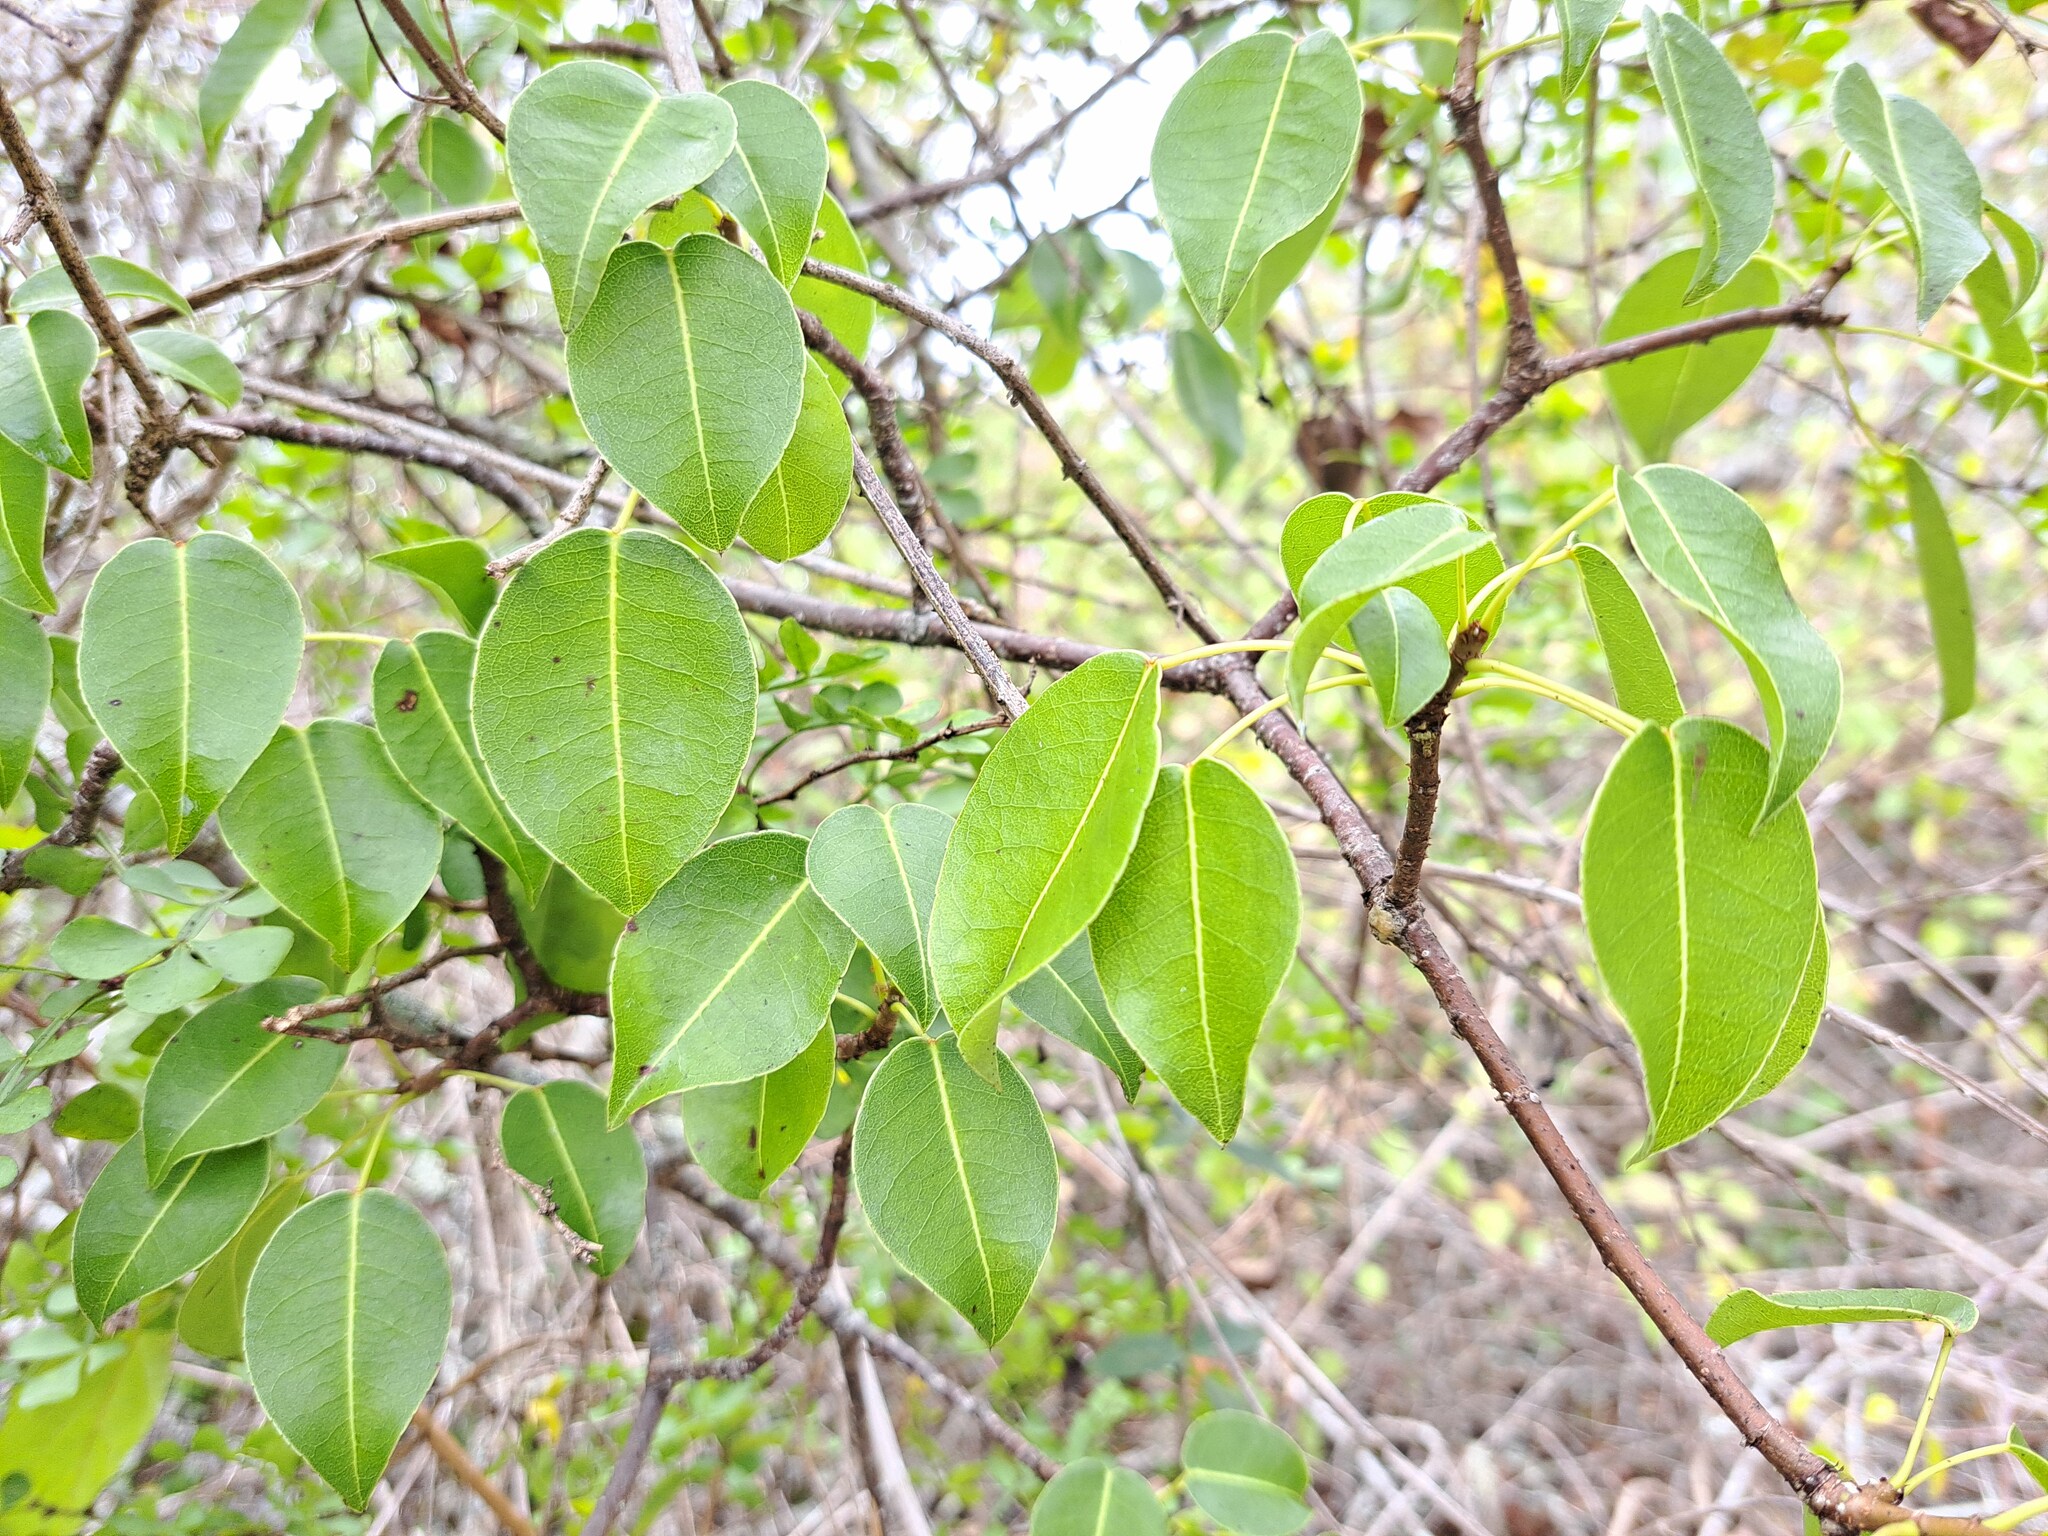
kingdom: Plantae
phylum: Tracheophyta
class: Magnoliopsida
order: Malpighiales
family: Euphorbiaceae
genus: Hippomane
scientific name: Hippomane mancinella
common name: Manchineel
